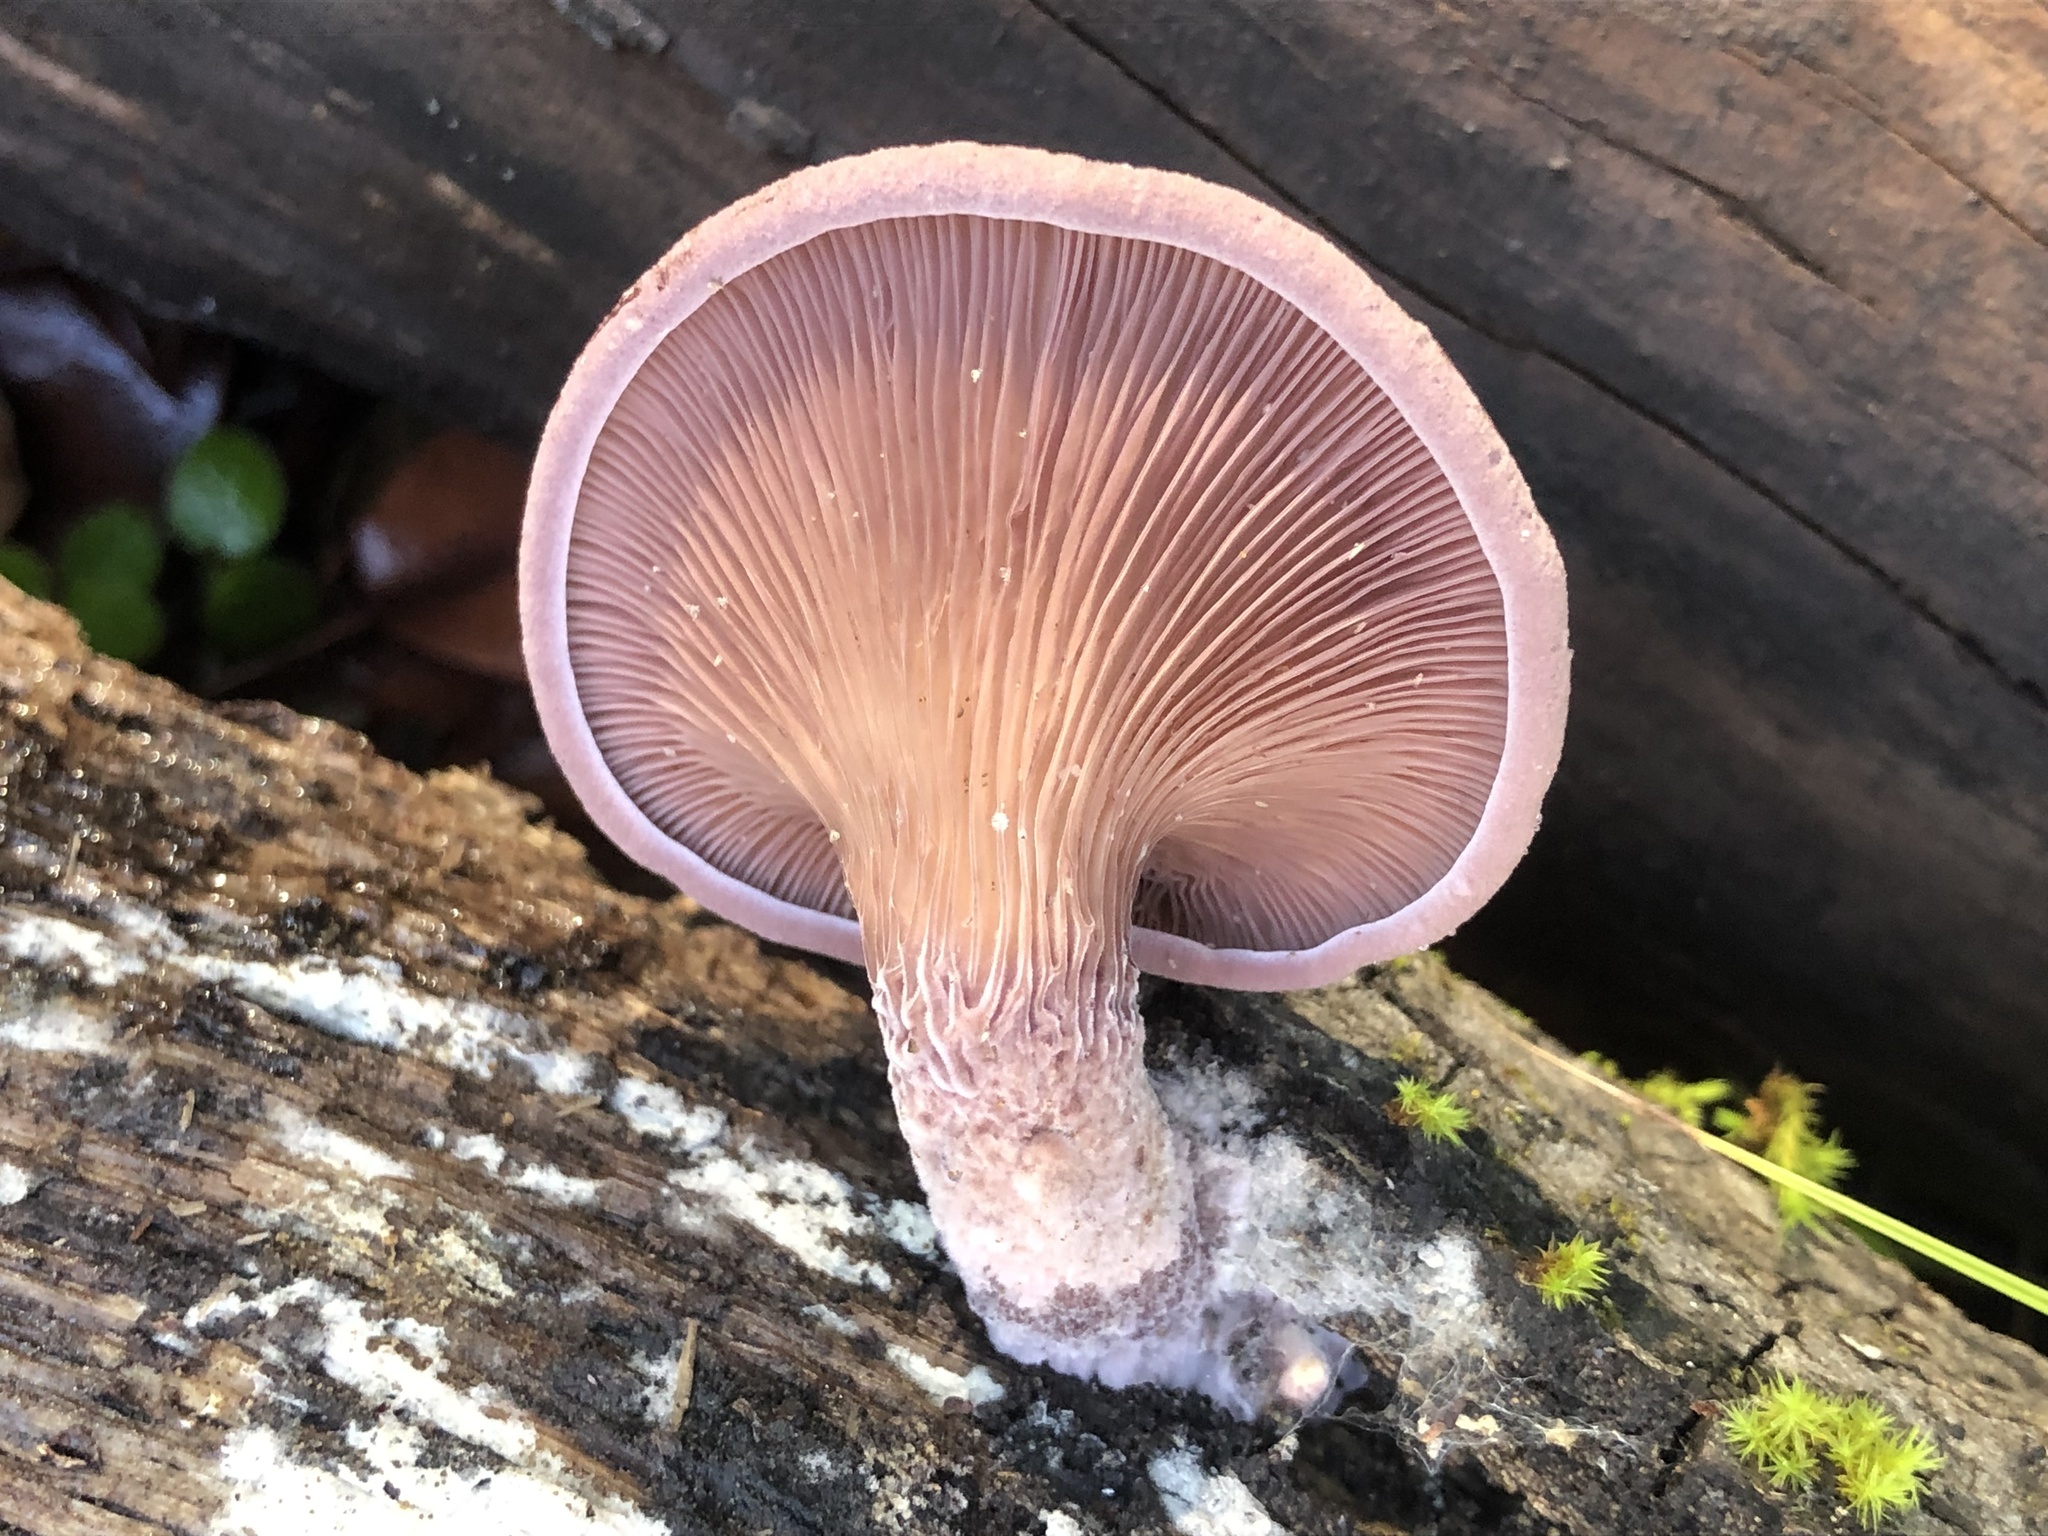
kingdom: Fungi
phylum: Basidiomycota
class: Agaricomycetes
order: Polyporales
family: Panaceae
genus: Panus
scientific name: Panus conchatus
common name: Lilac oysterling
